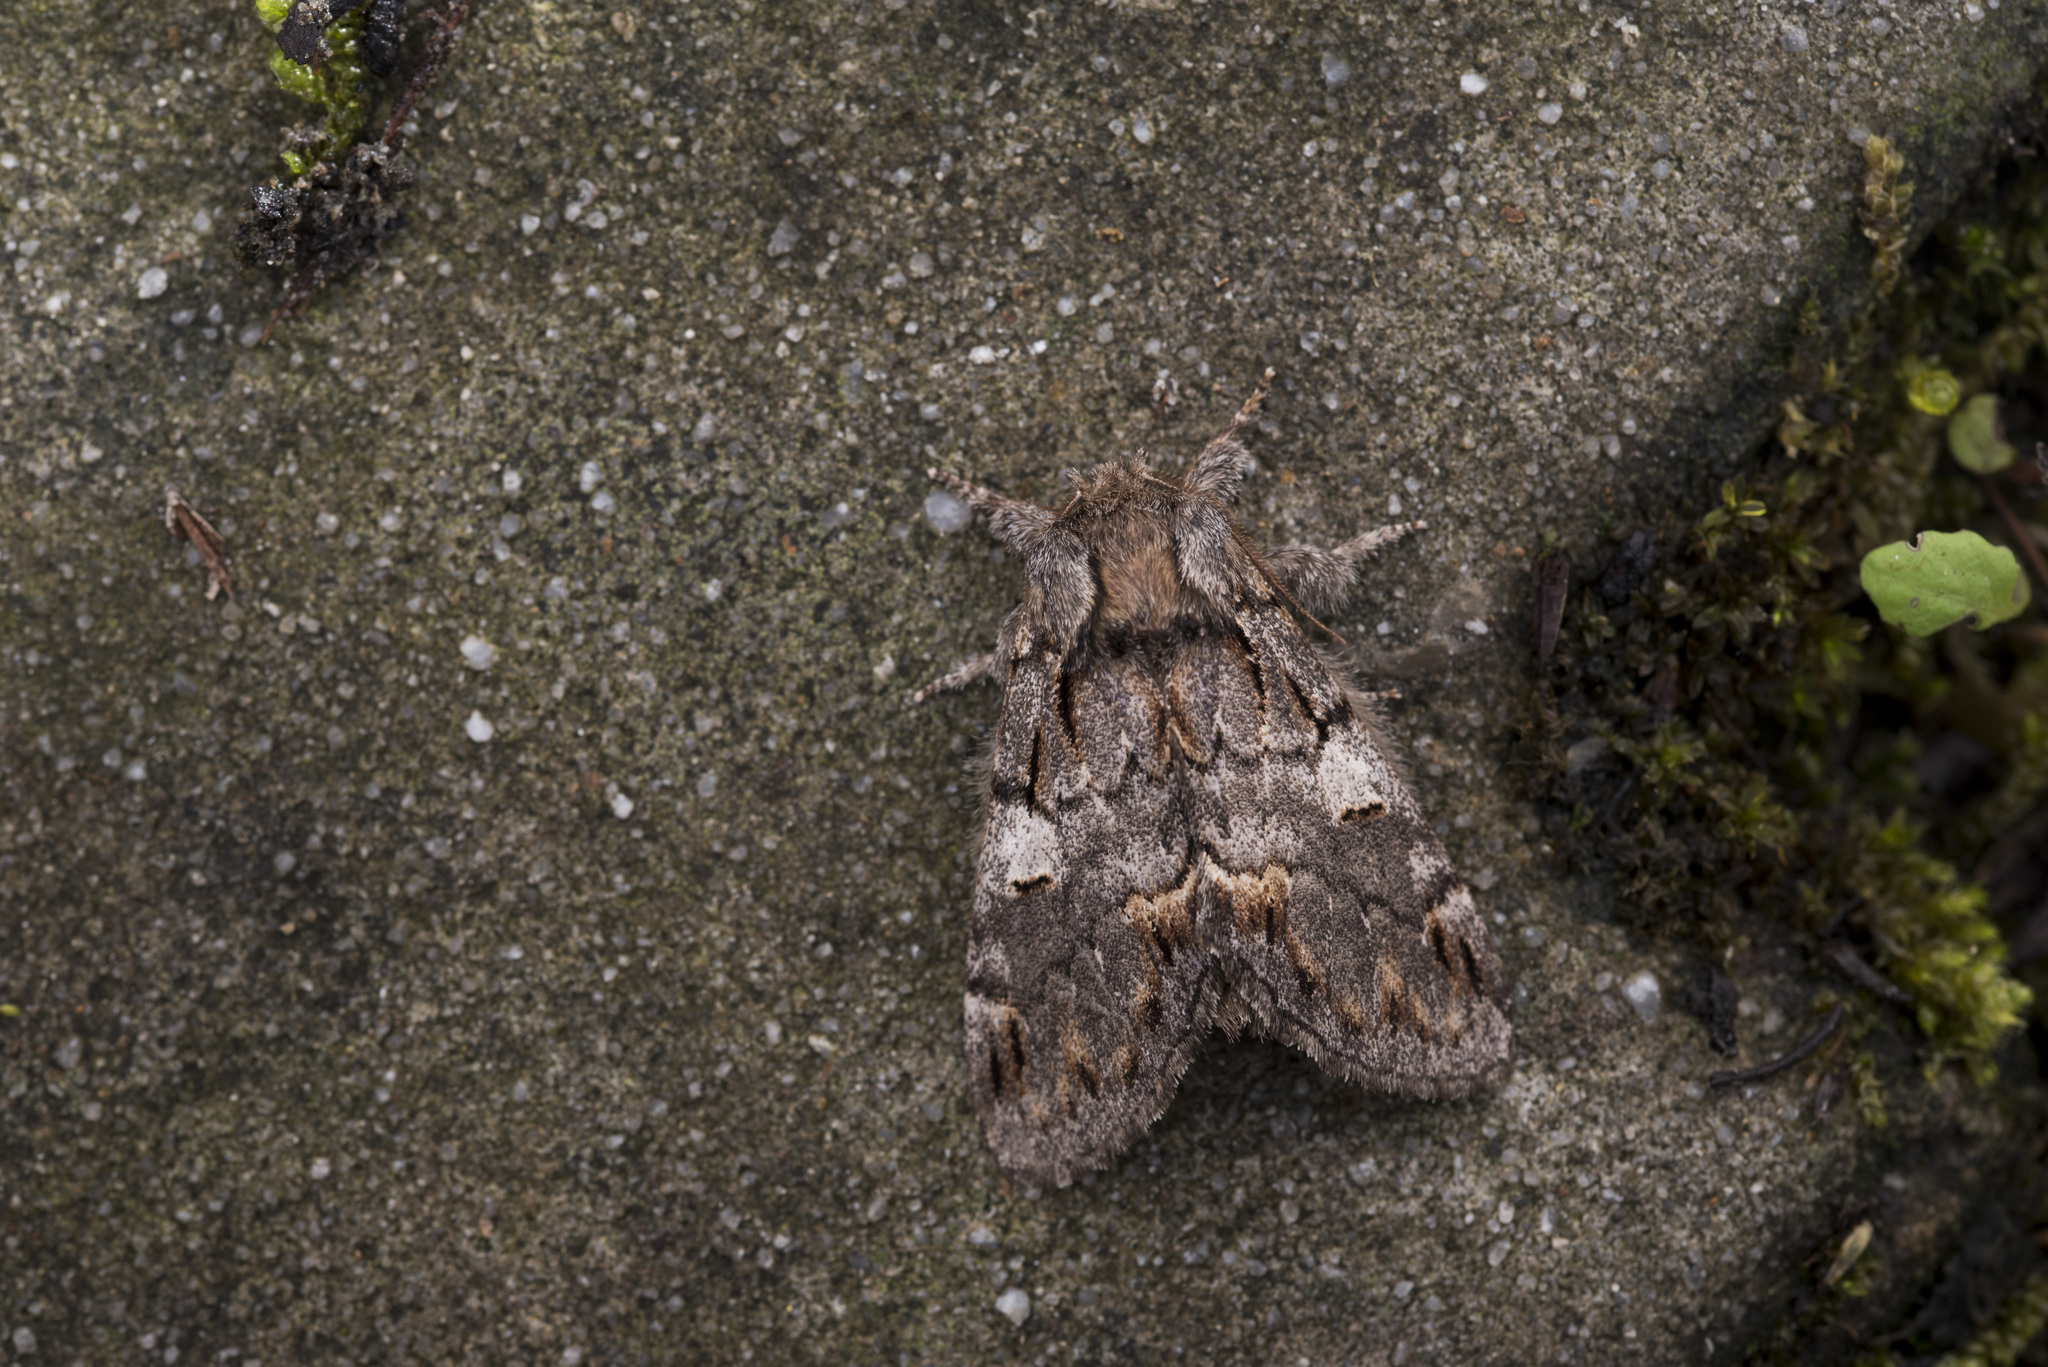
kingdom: Animalia
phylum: Arthropoda
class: Insecta
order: Lepidoptera
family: Notodontidae
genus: Notodonta
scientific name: Notodonta griseotincta
